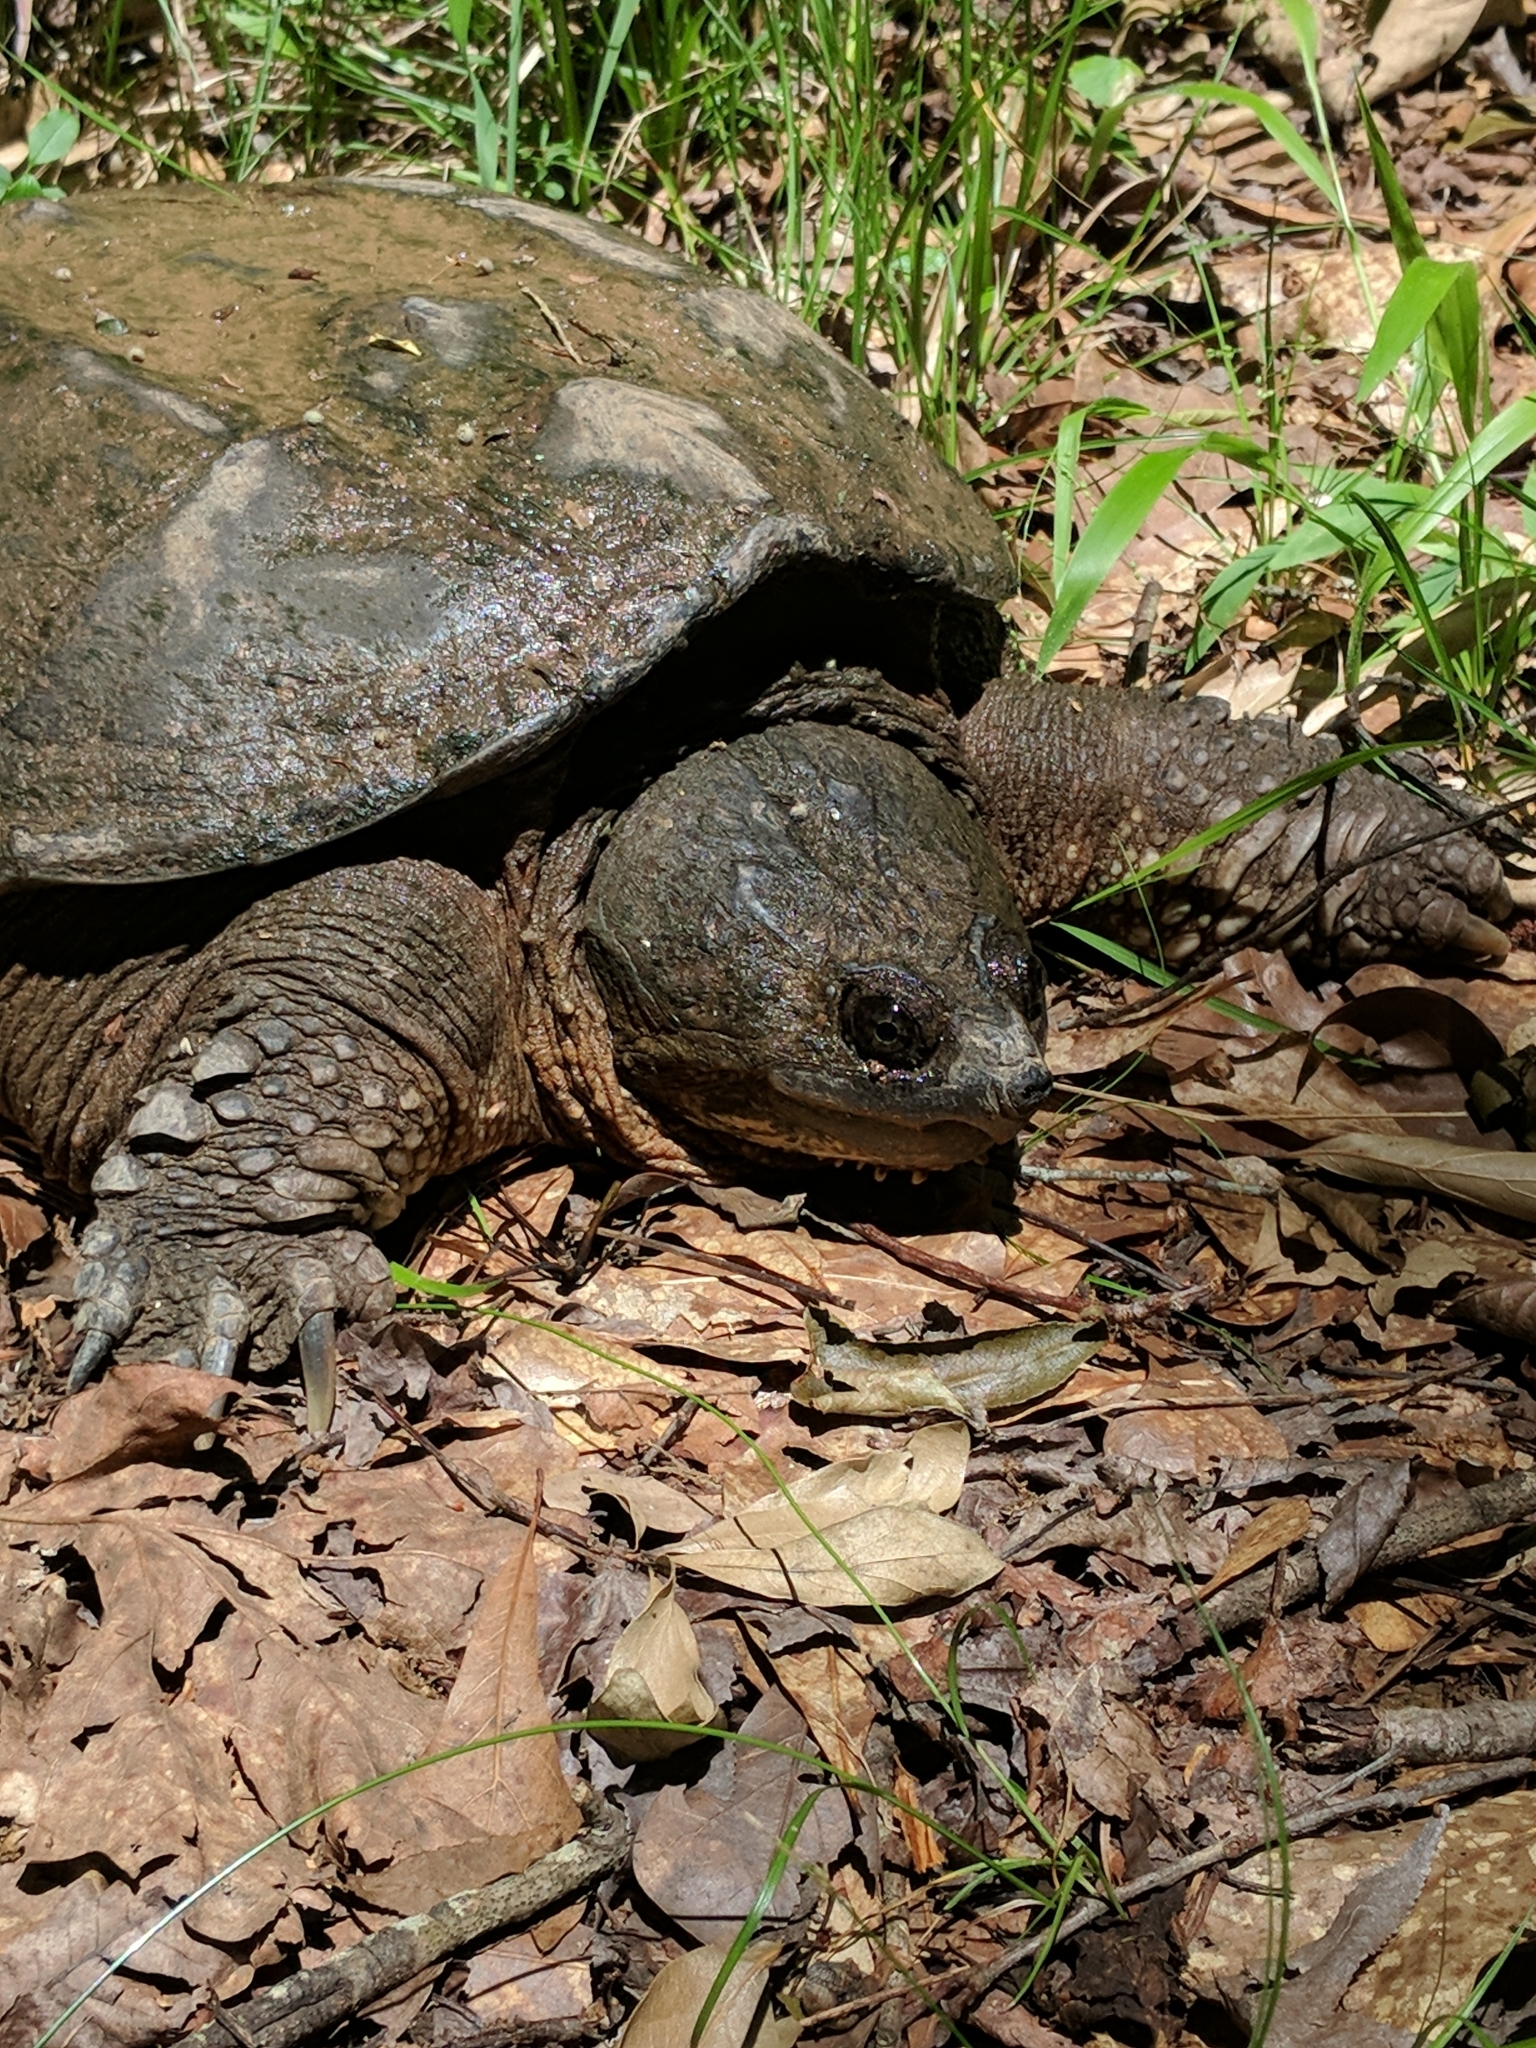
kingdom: Animalia
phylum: Chordata
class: Testudines
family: Chelydridae
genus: Chelydra
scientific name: Chelydra serpentina
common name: Common snapping turtle
